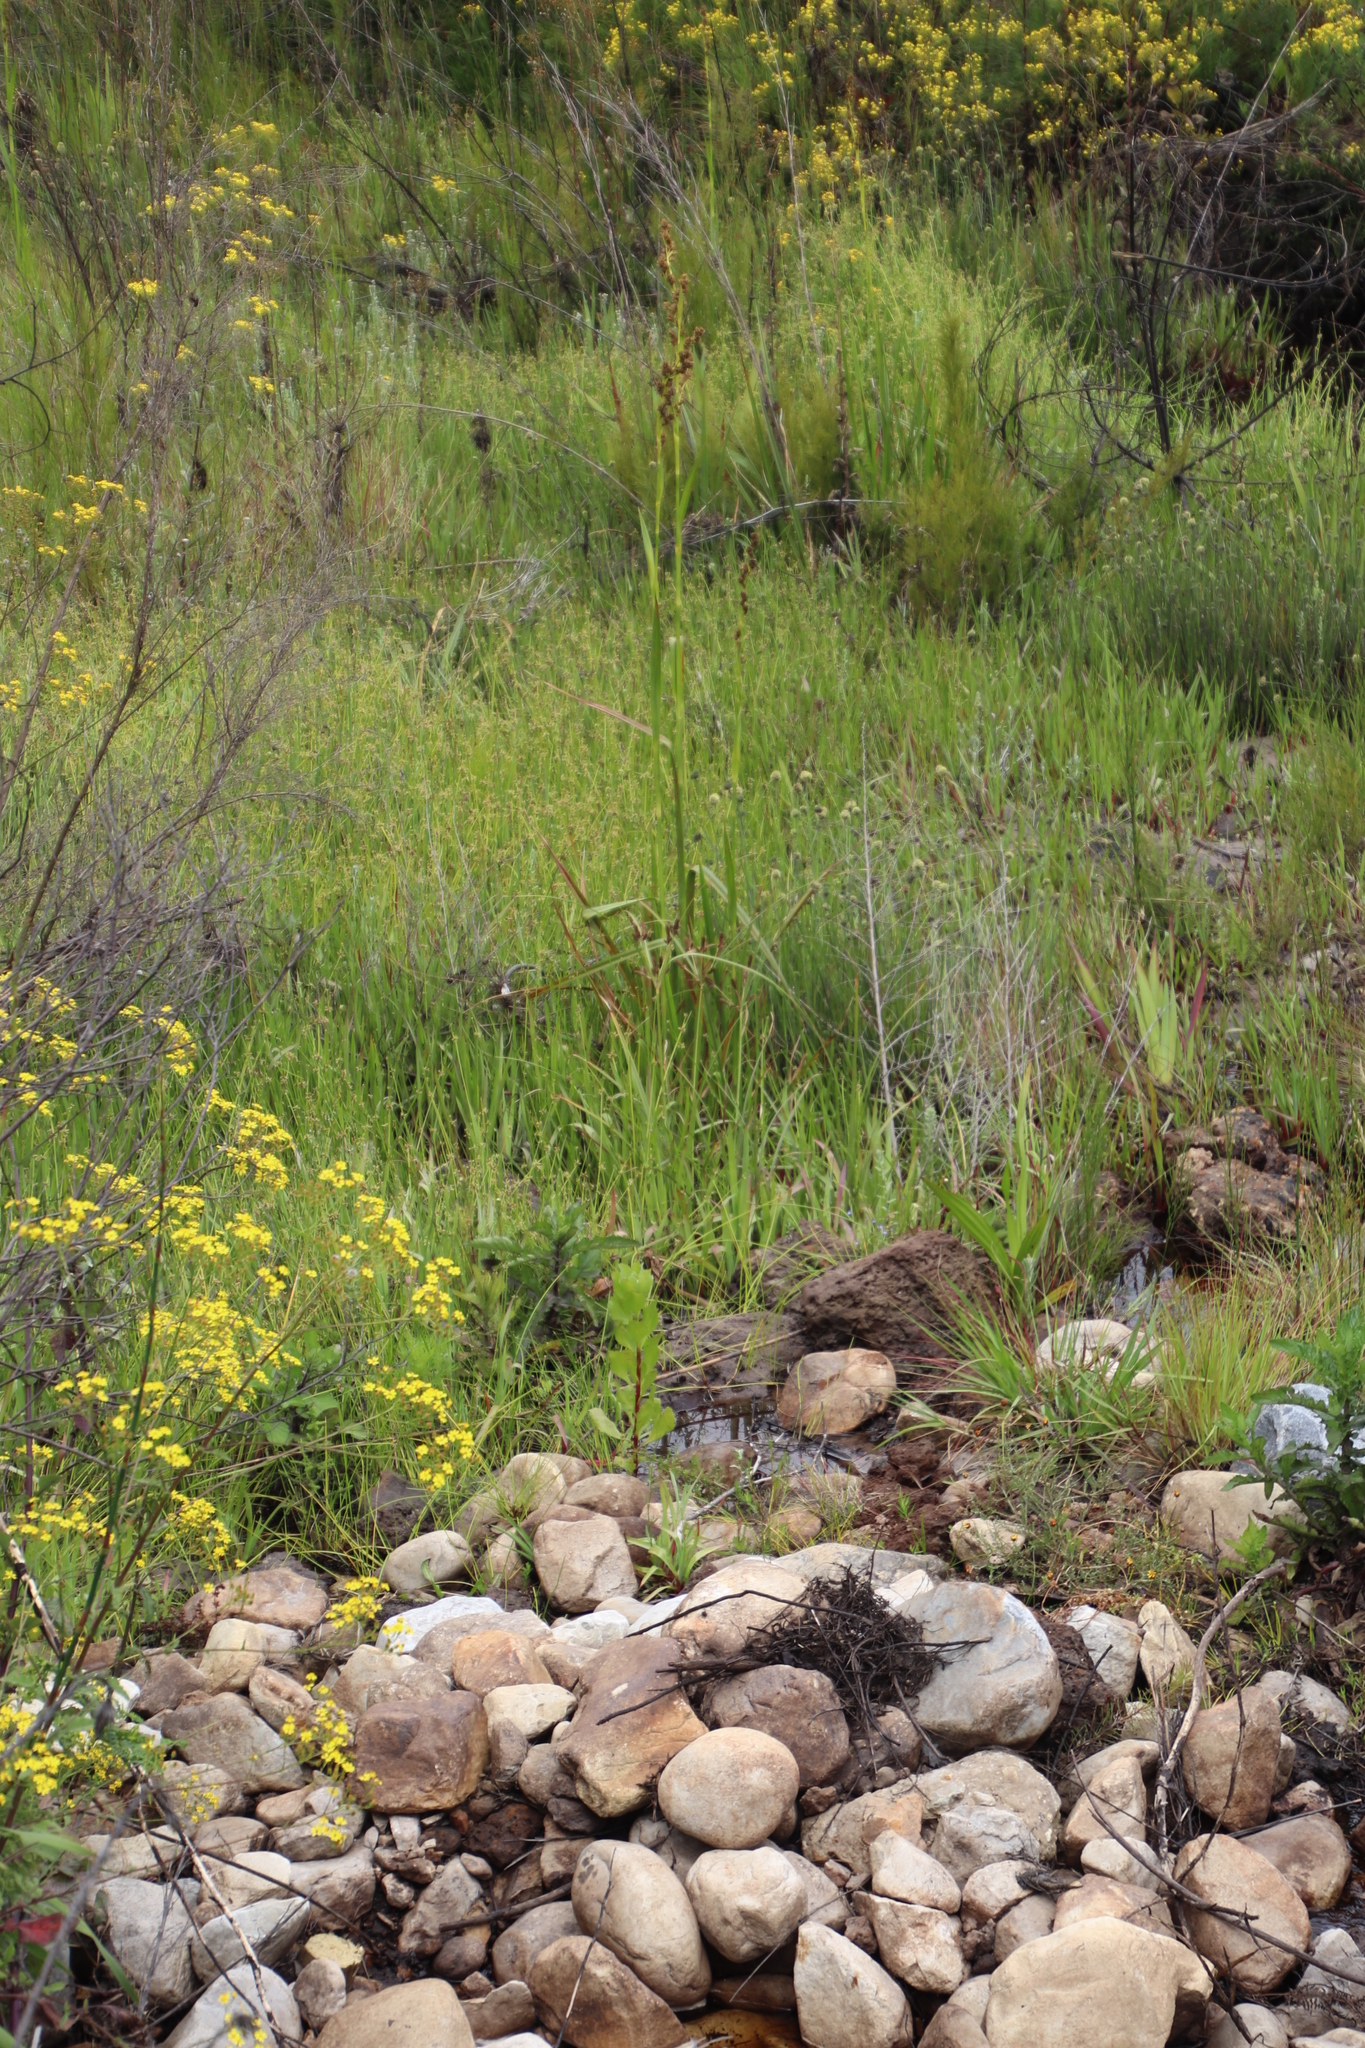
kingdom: Plantae
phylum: Tracheophyta
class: Liliopsida
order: Poales
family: Cyperaceae
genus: Carpha
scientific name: Carpha glomerata
